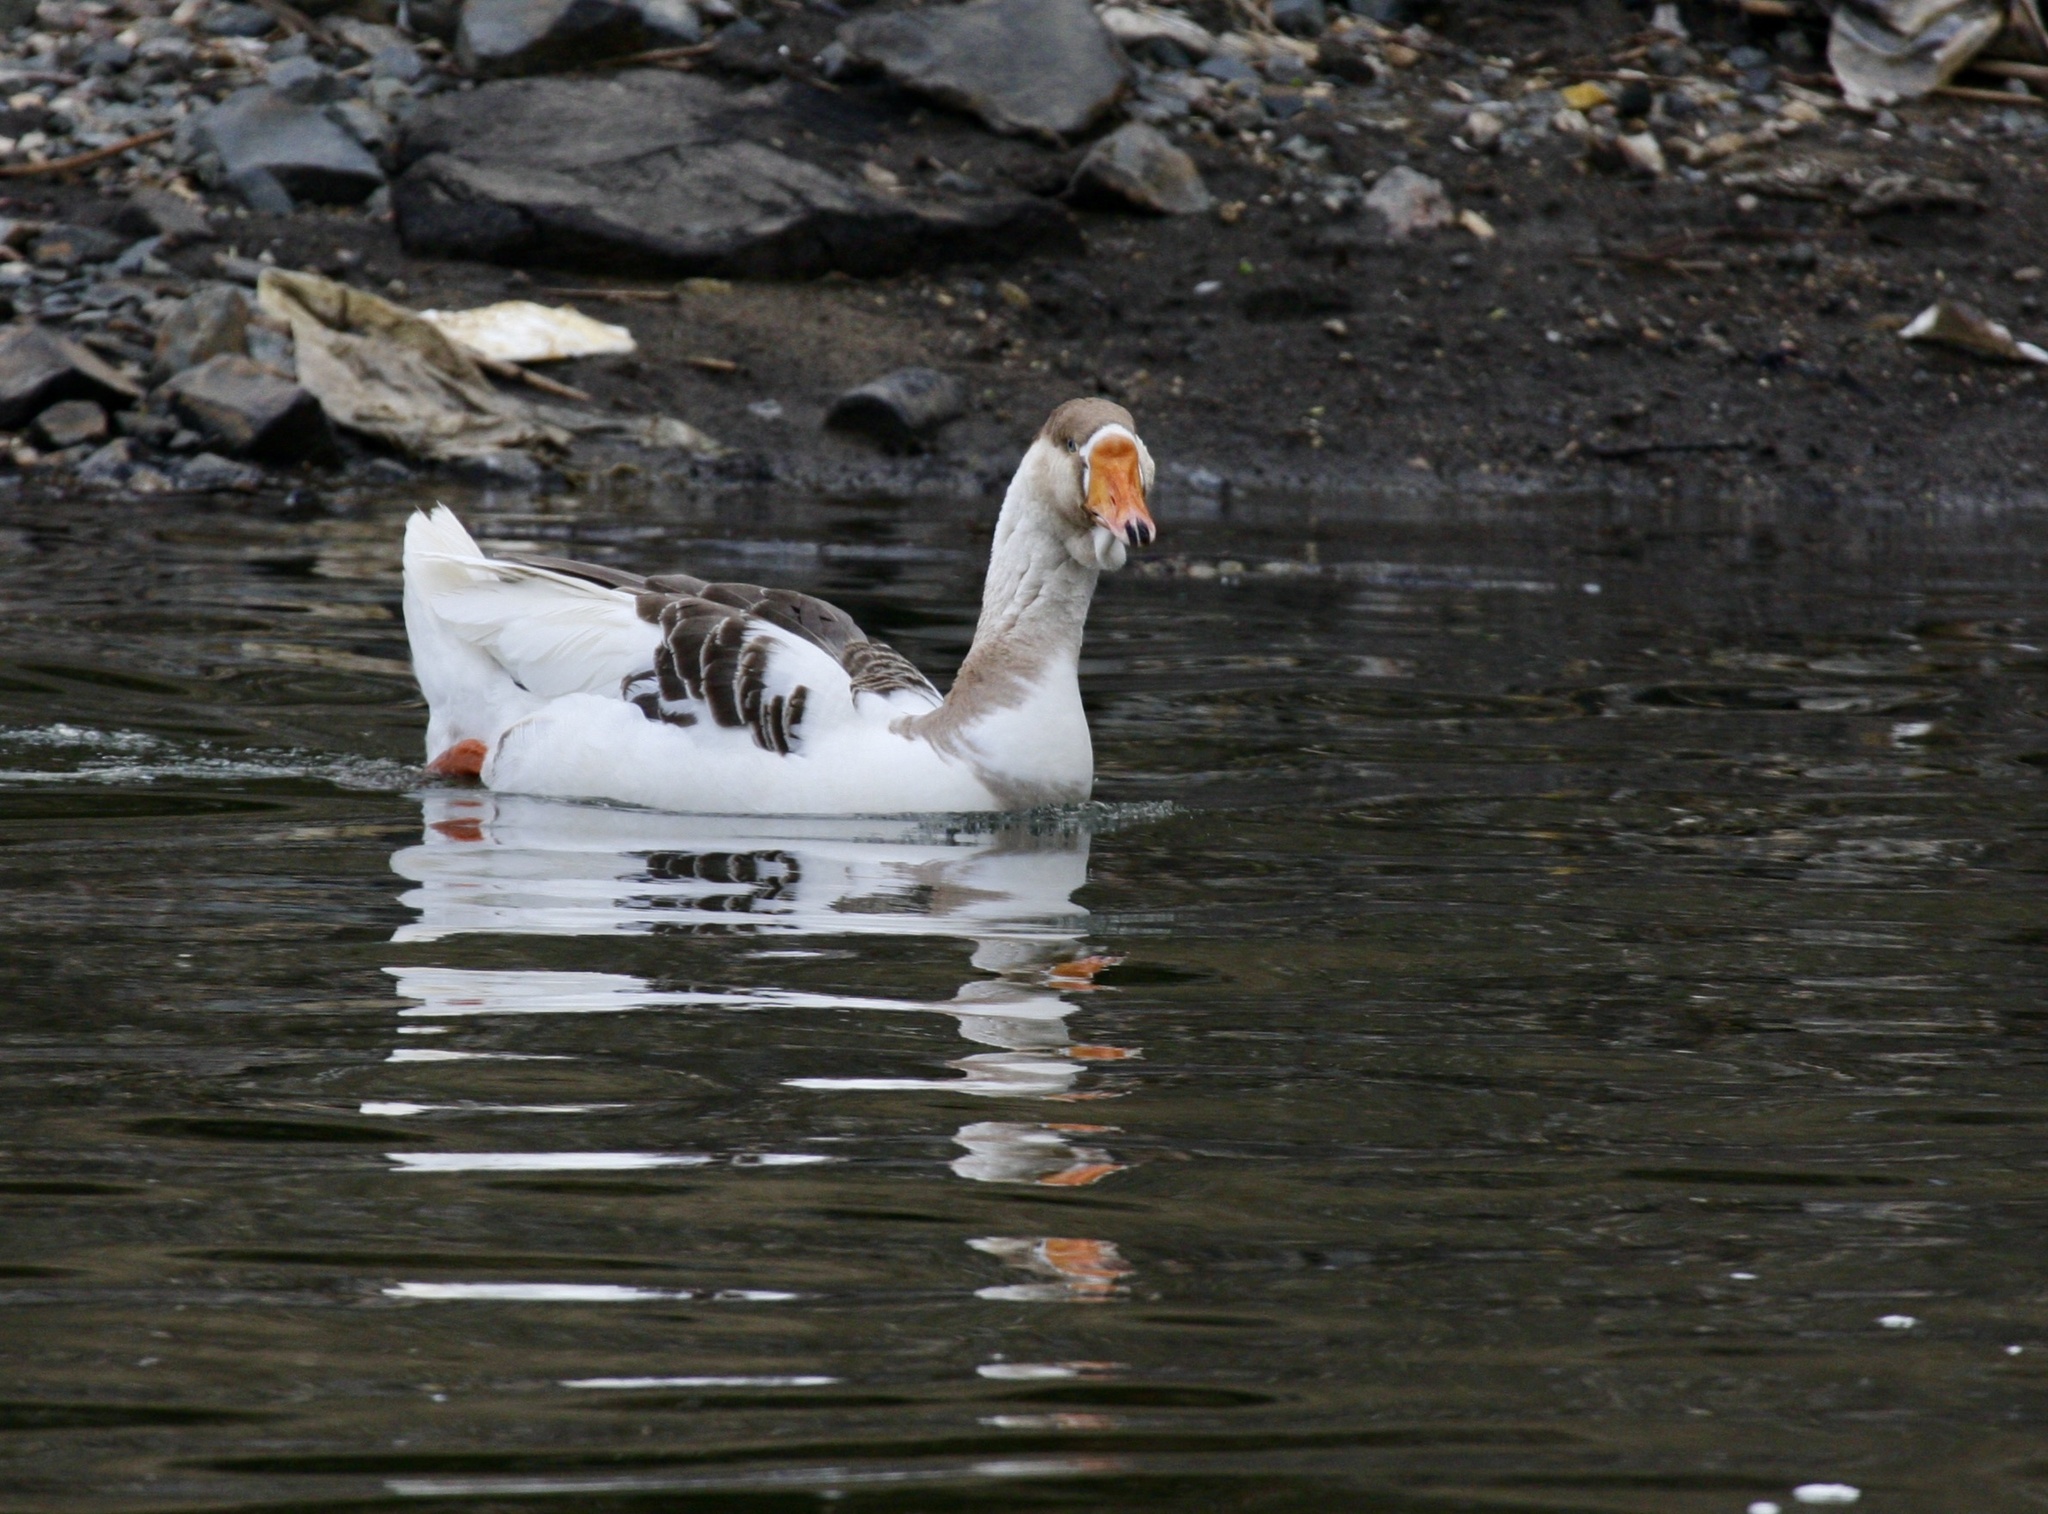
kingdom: Animalia
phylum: Chordata
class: Aves
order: Anseriformes
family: Anatidae
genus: Anser
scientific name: Anser
